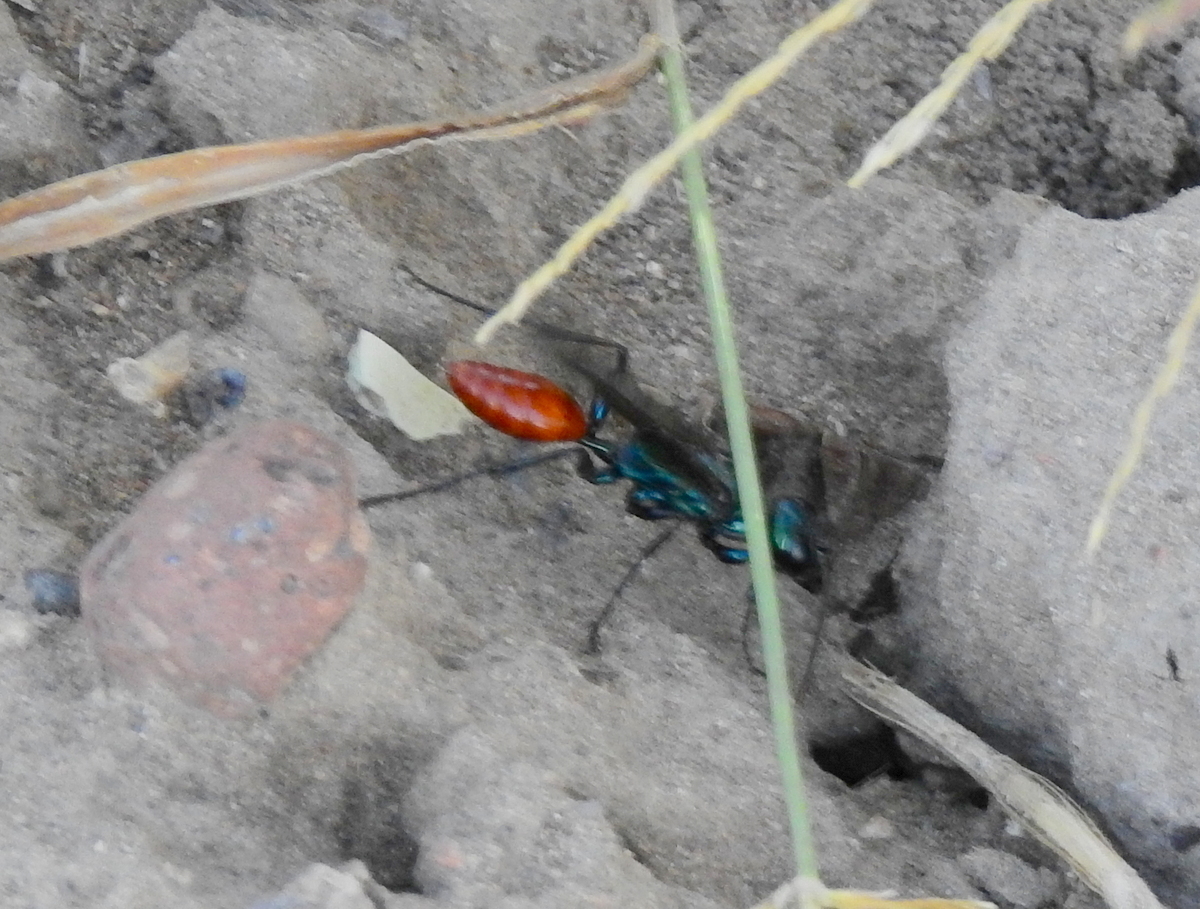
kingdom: Animalia
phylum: Arthropoda
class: Insecta
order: Hymenoptera
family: Sphecidae
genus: Chlorion
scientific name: Chlorion hemipyrrhum
